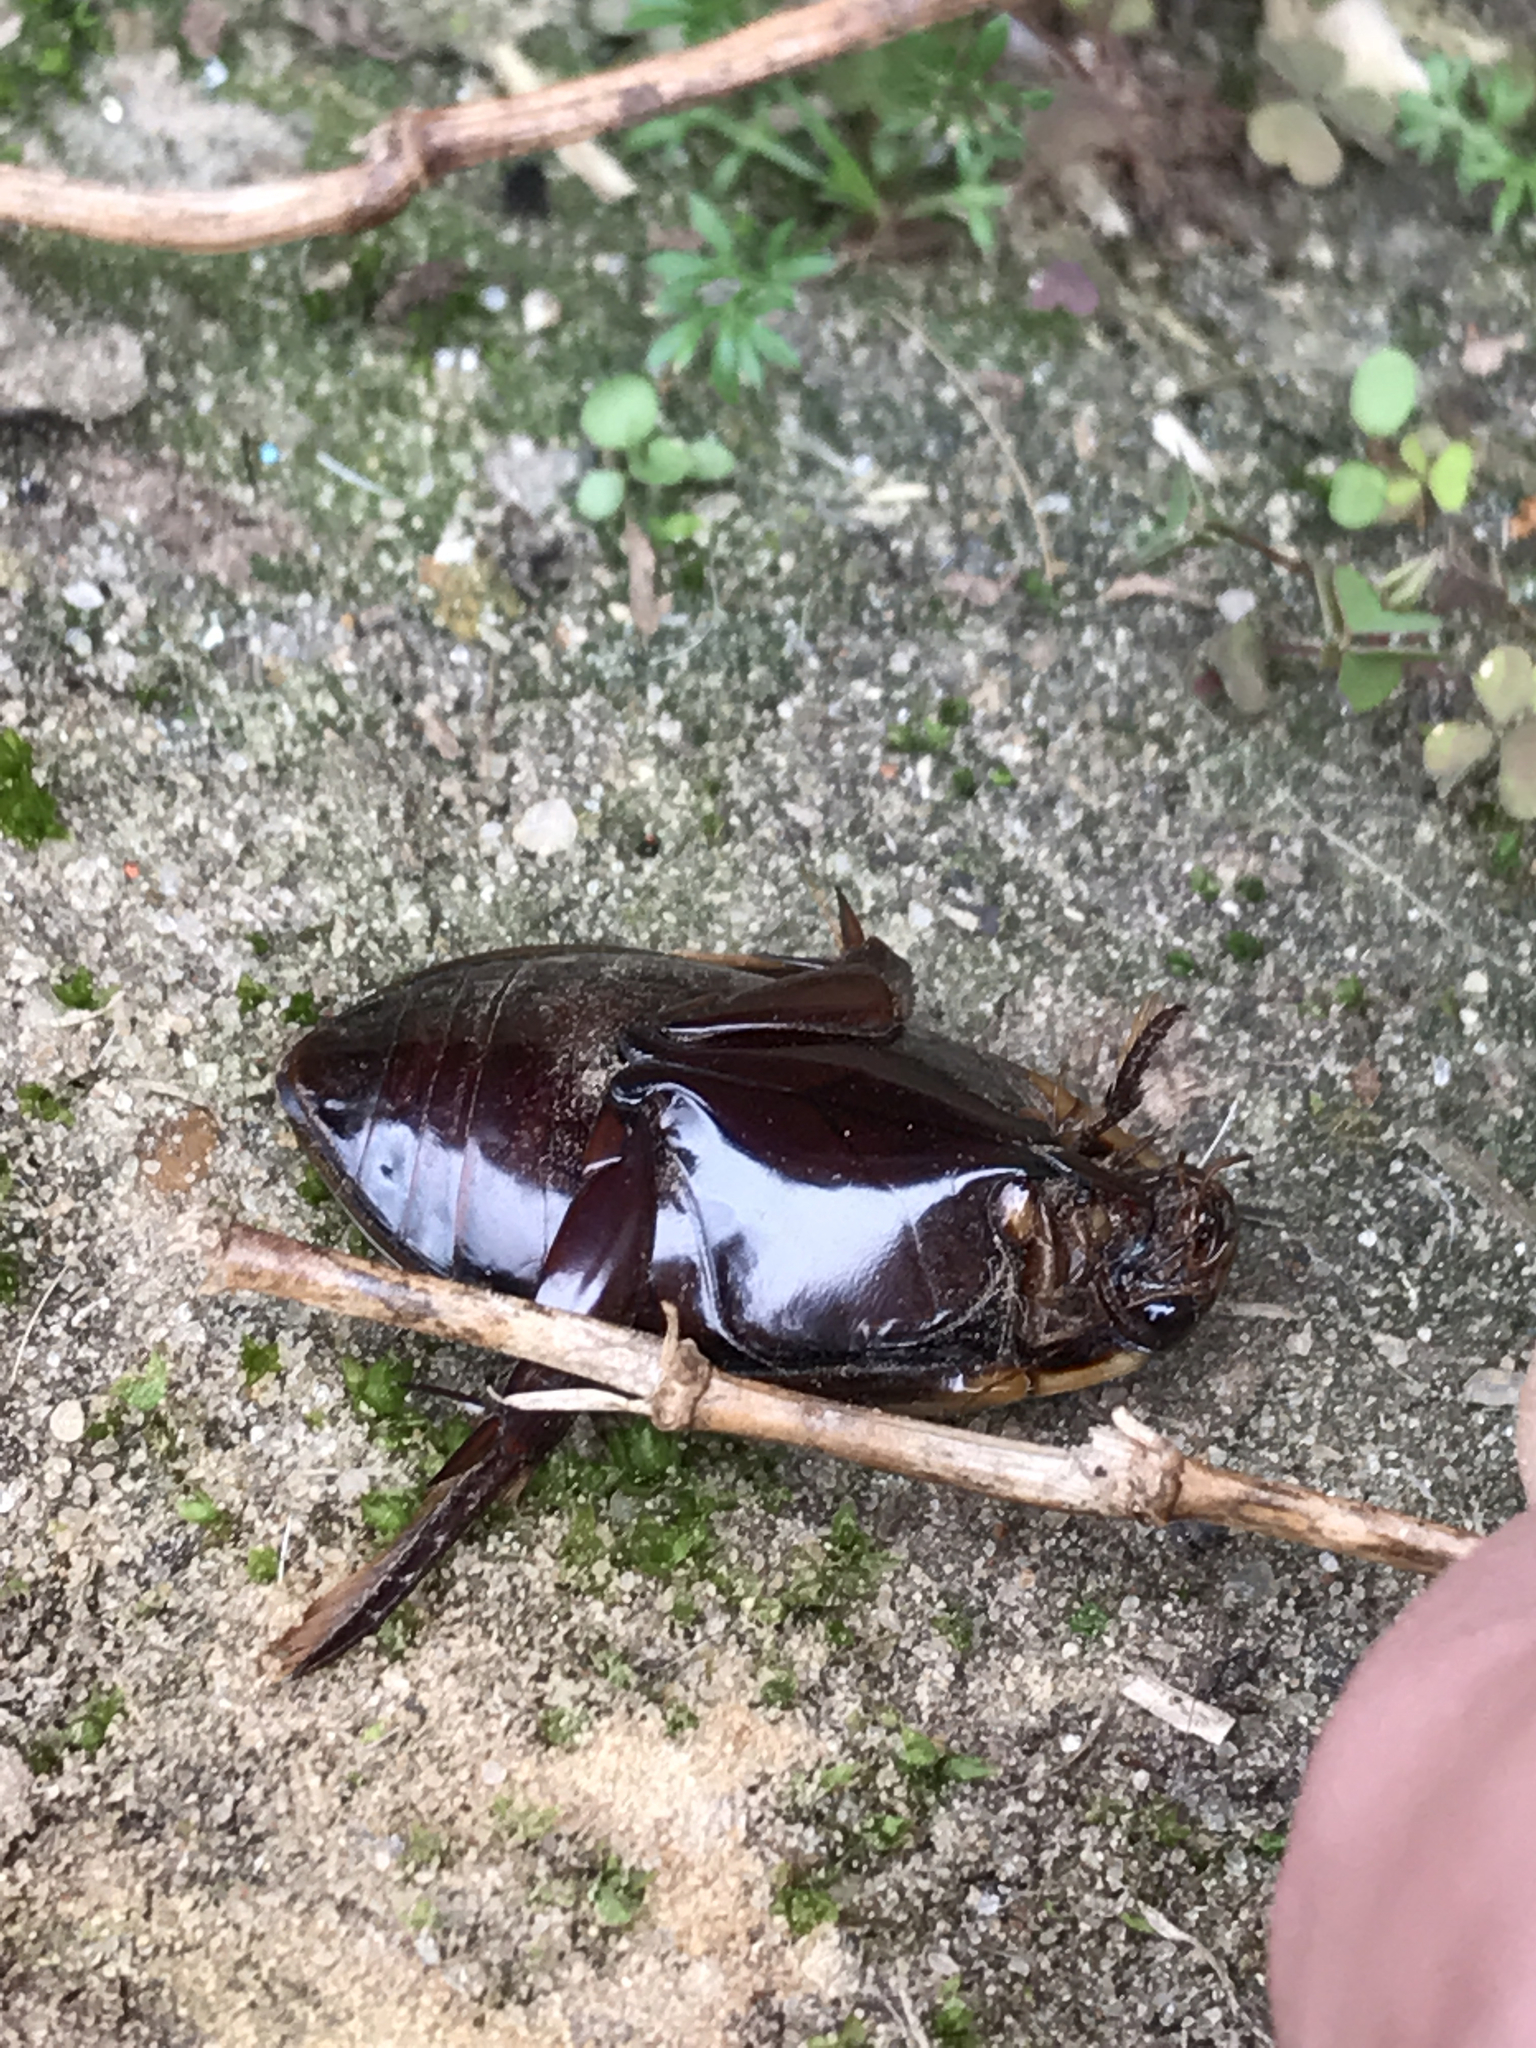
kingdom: Animalia
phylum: Arthropoda
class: Insecta
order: Coleoptera
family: Dytiscidae
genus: Cybister
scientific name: Cybister fimbriolatus
